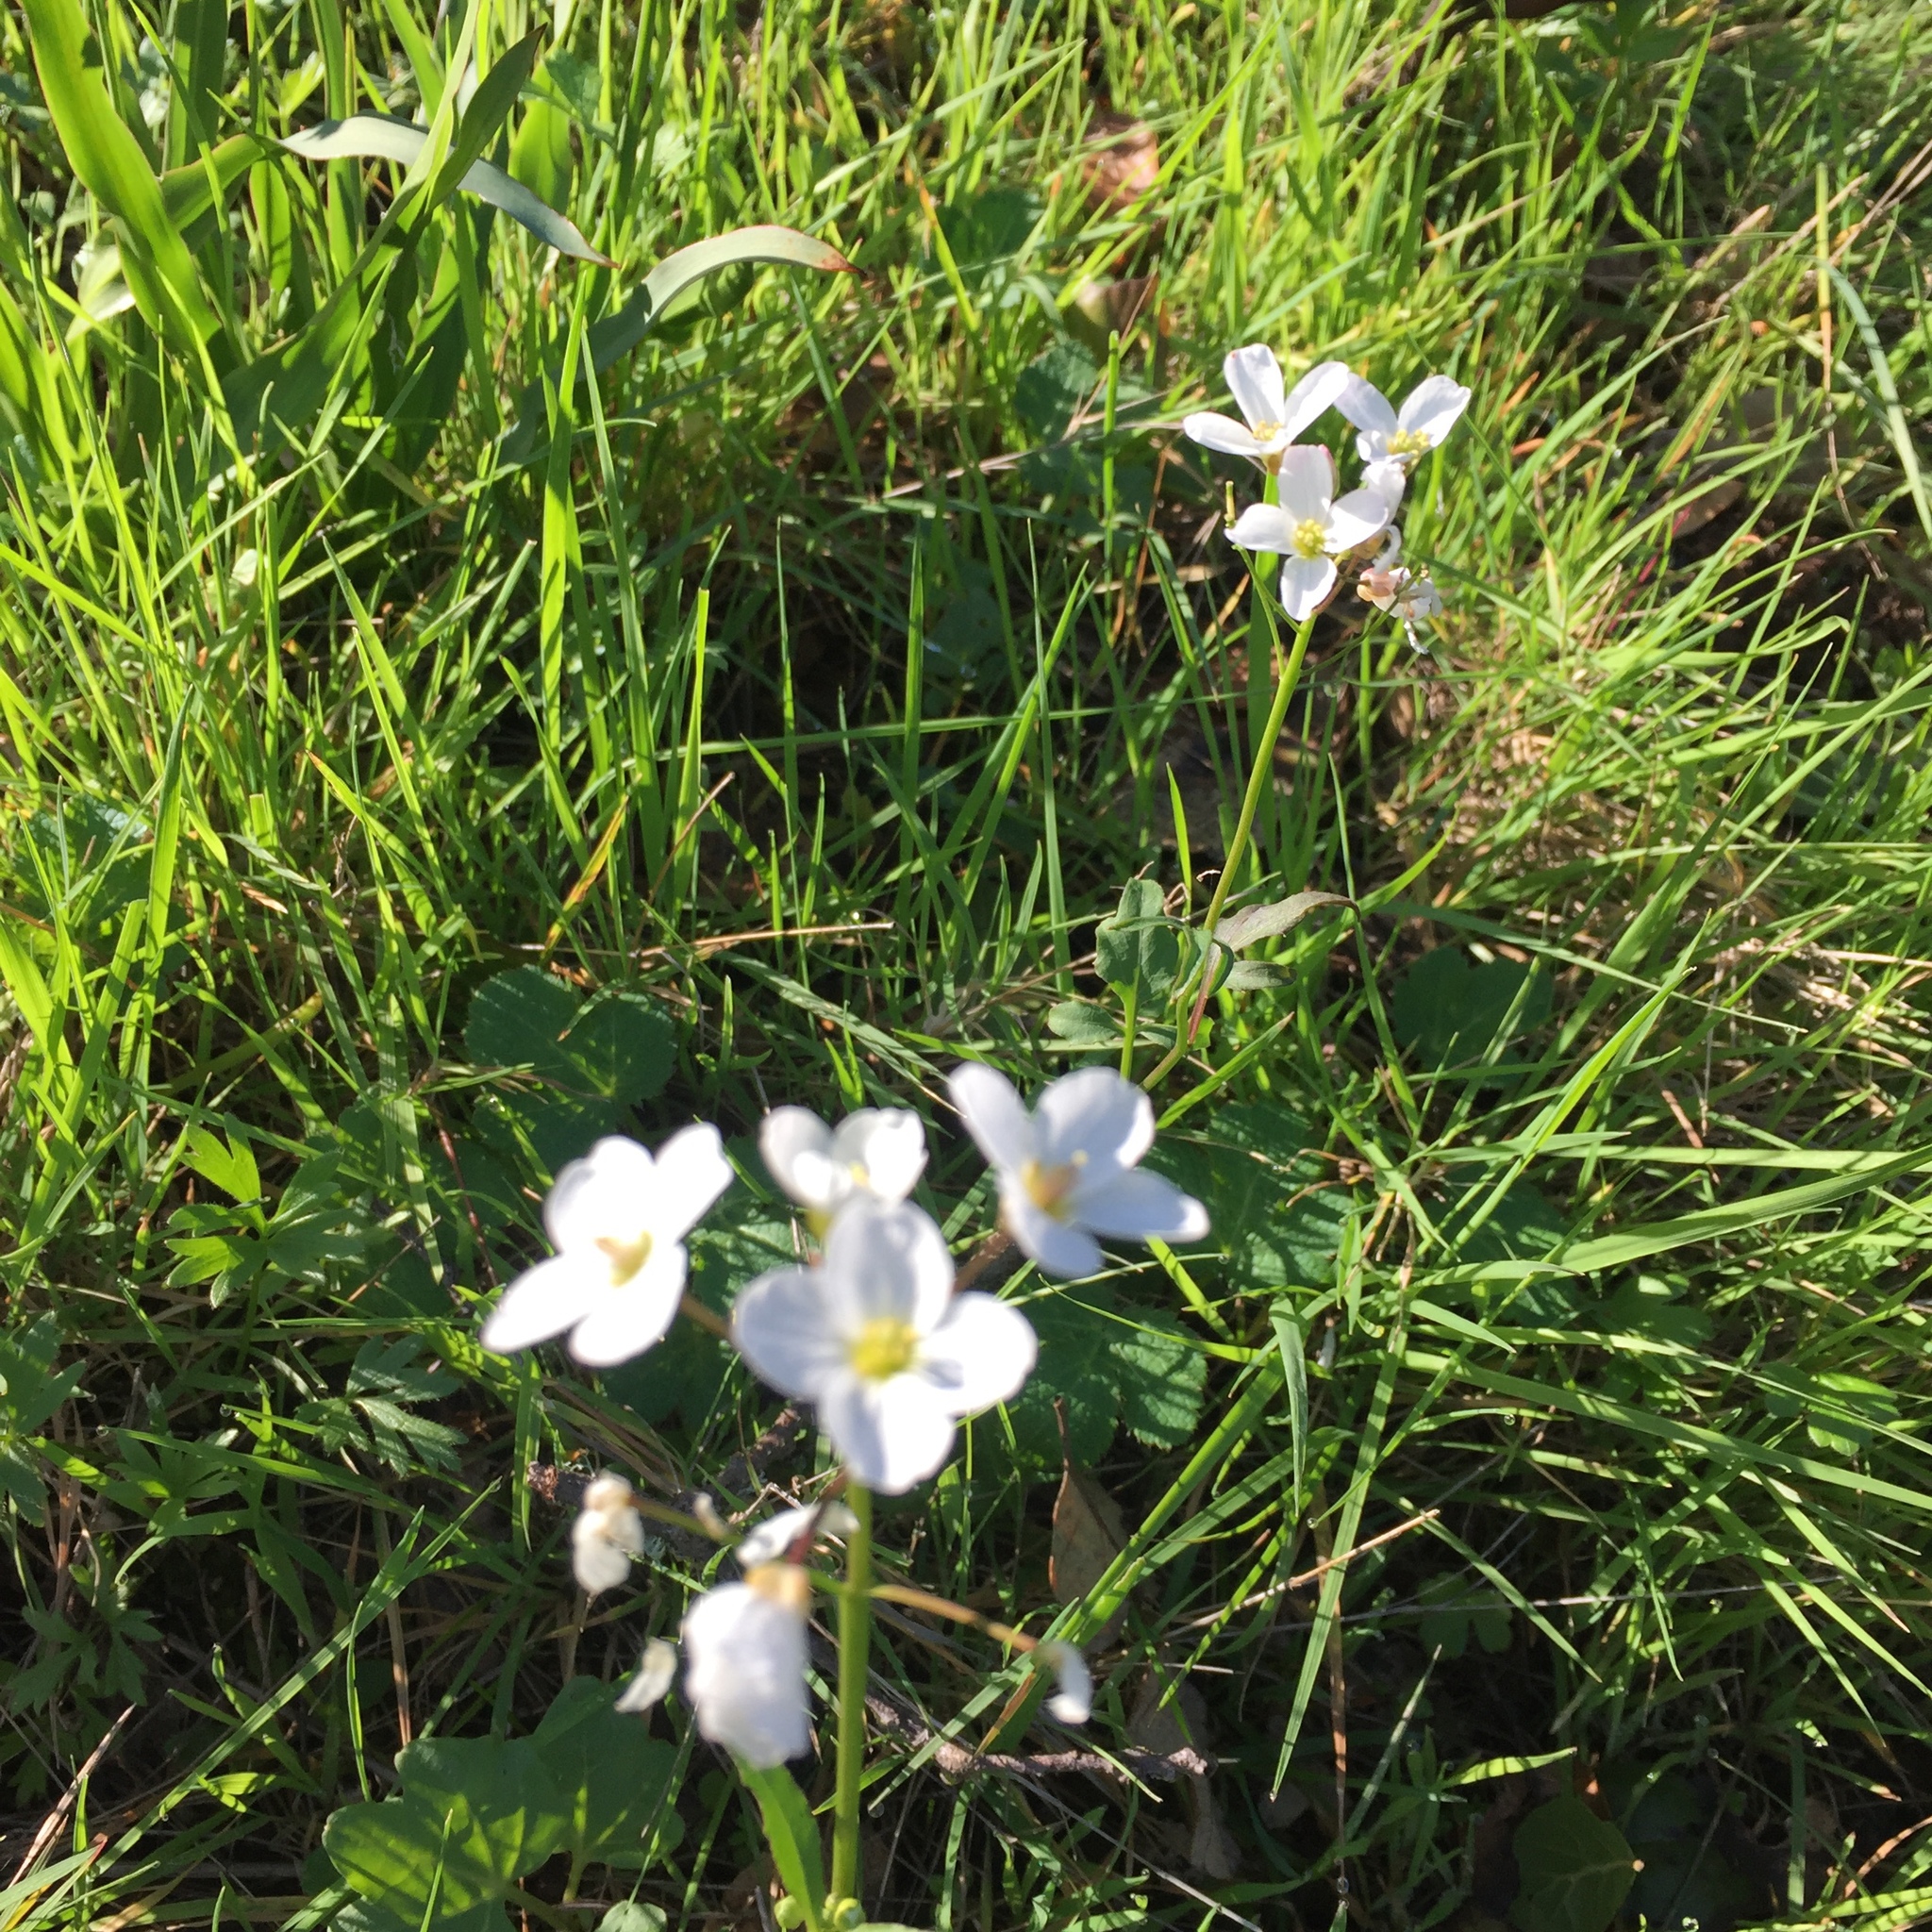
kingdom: Plantae
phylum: Tracheophyta
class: Magnoliopsida
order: Brassicales
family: Brassicaceae
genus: Cardamine
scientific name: Cardamine californica
